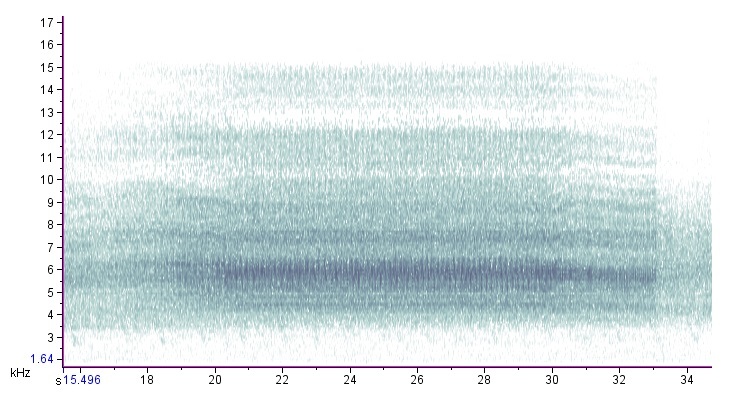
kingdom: Animalia
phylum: Arthropoda
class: Insecta
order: Hemiptera
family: Cicadidae
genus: Neotibicen
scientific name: Neotibicen linnei
